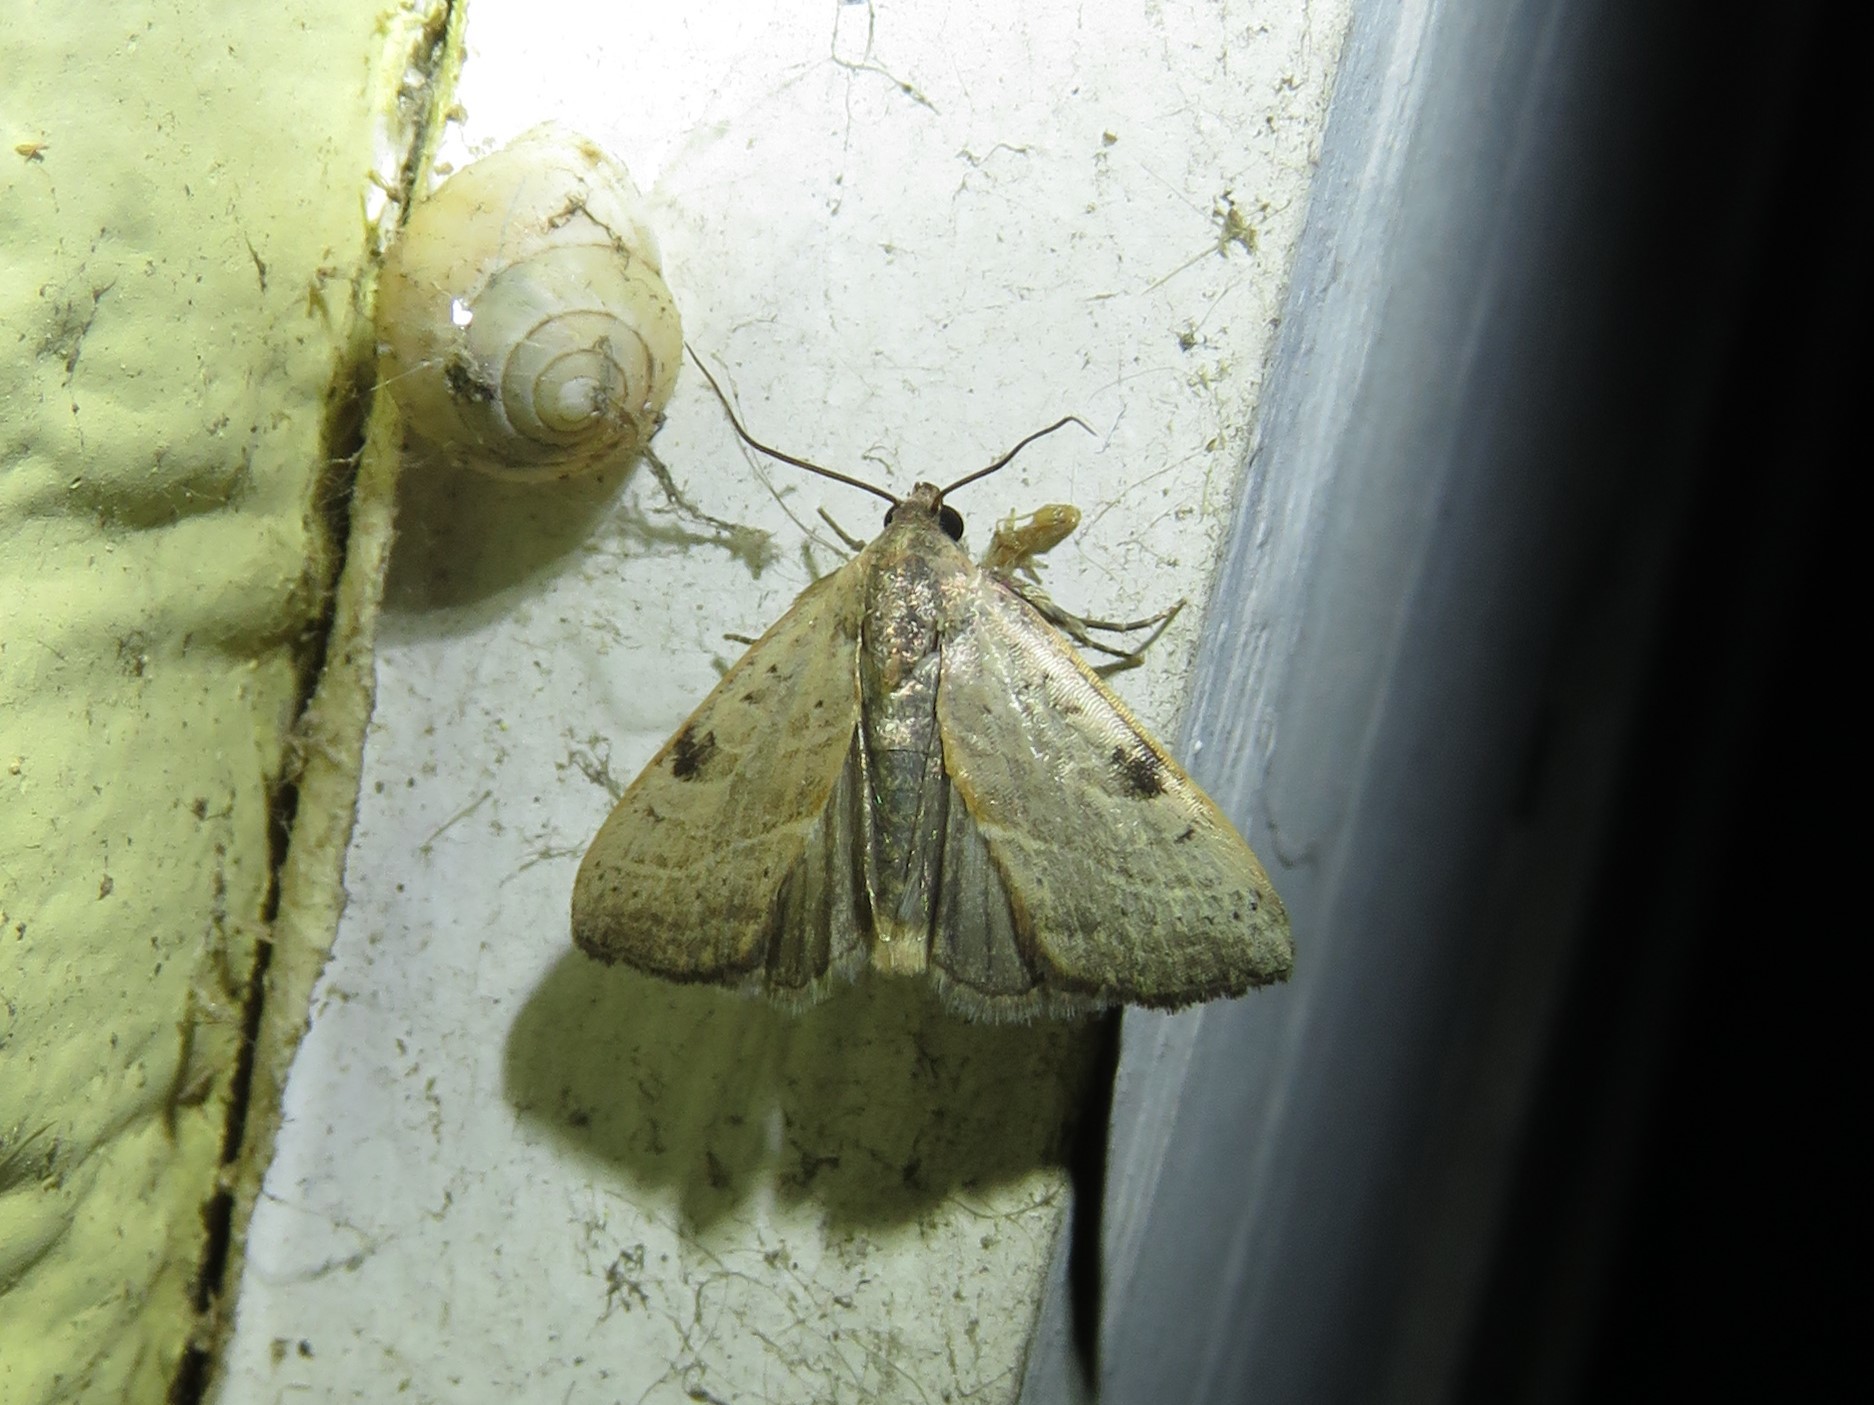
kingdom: Animalia
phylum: Arthropoda
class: Insecta
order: Lepidoptera
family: Noctuidae
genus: Galgula
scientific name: Galgula partita
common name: Wedgeling
